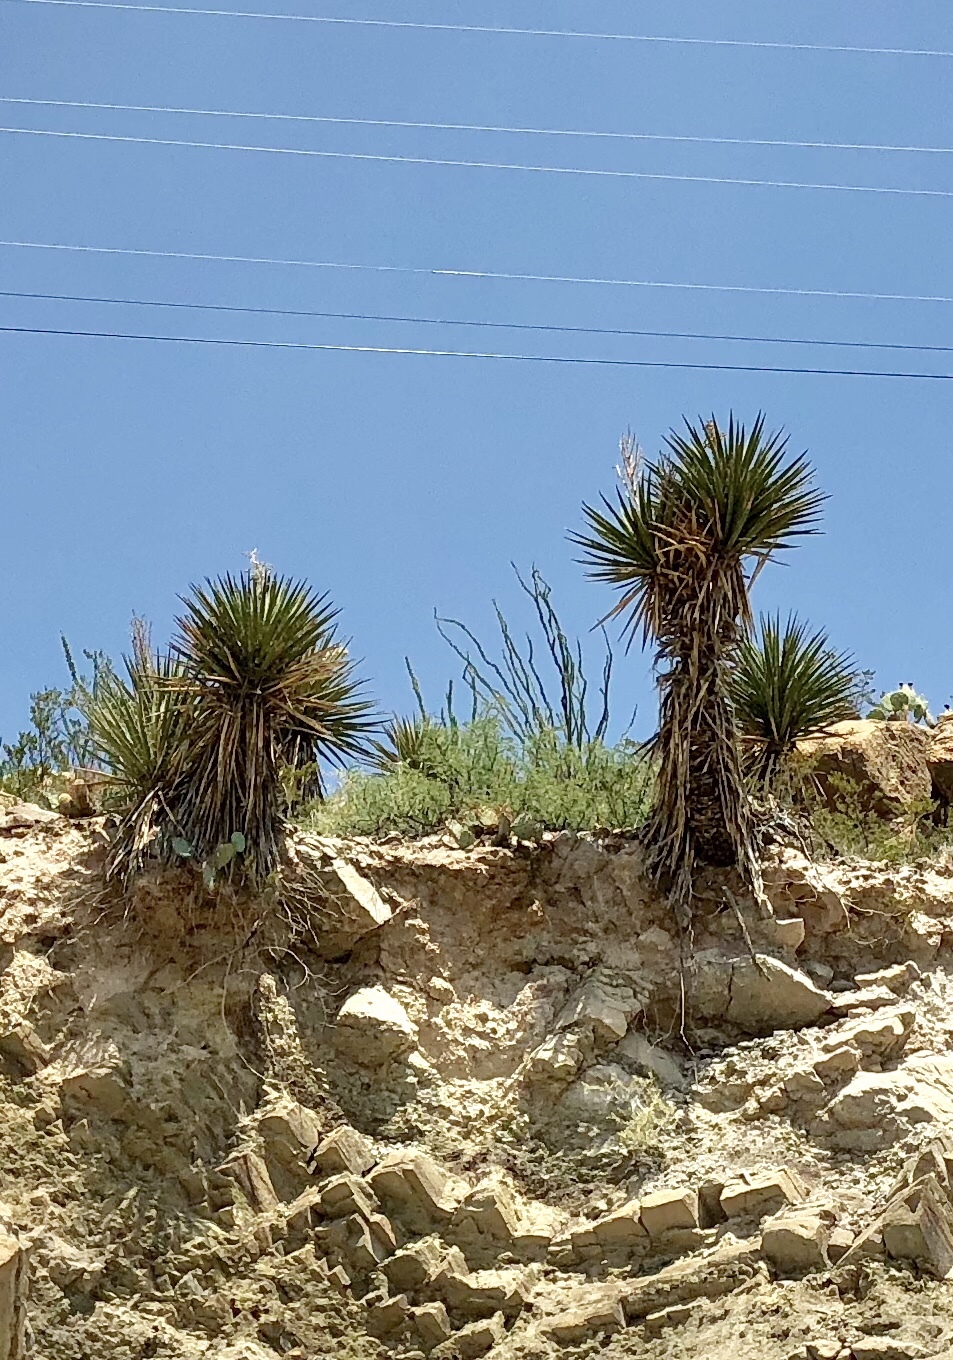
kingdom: Plantae
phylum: Tracheophyta
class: Liliopsida
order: Asparagales
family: Asparagaceae
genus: Yucca
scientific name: Yucca treculiana
